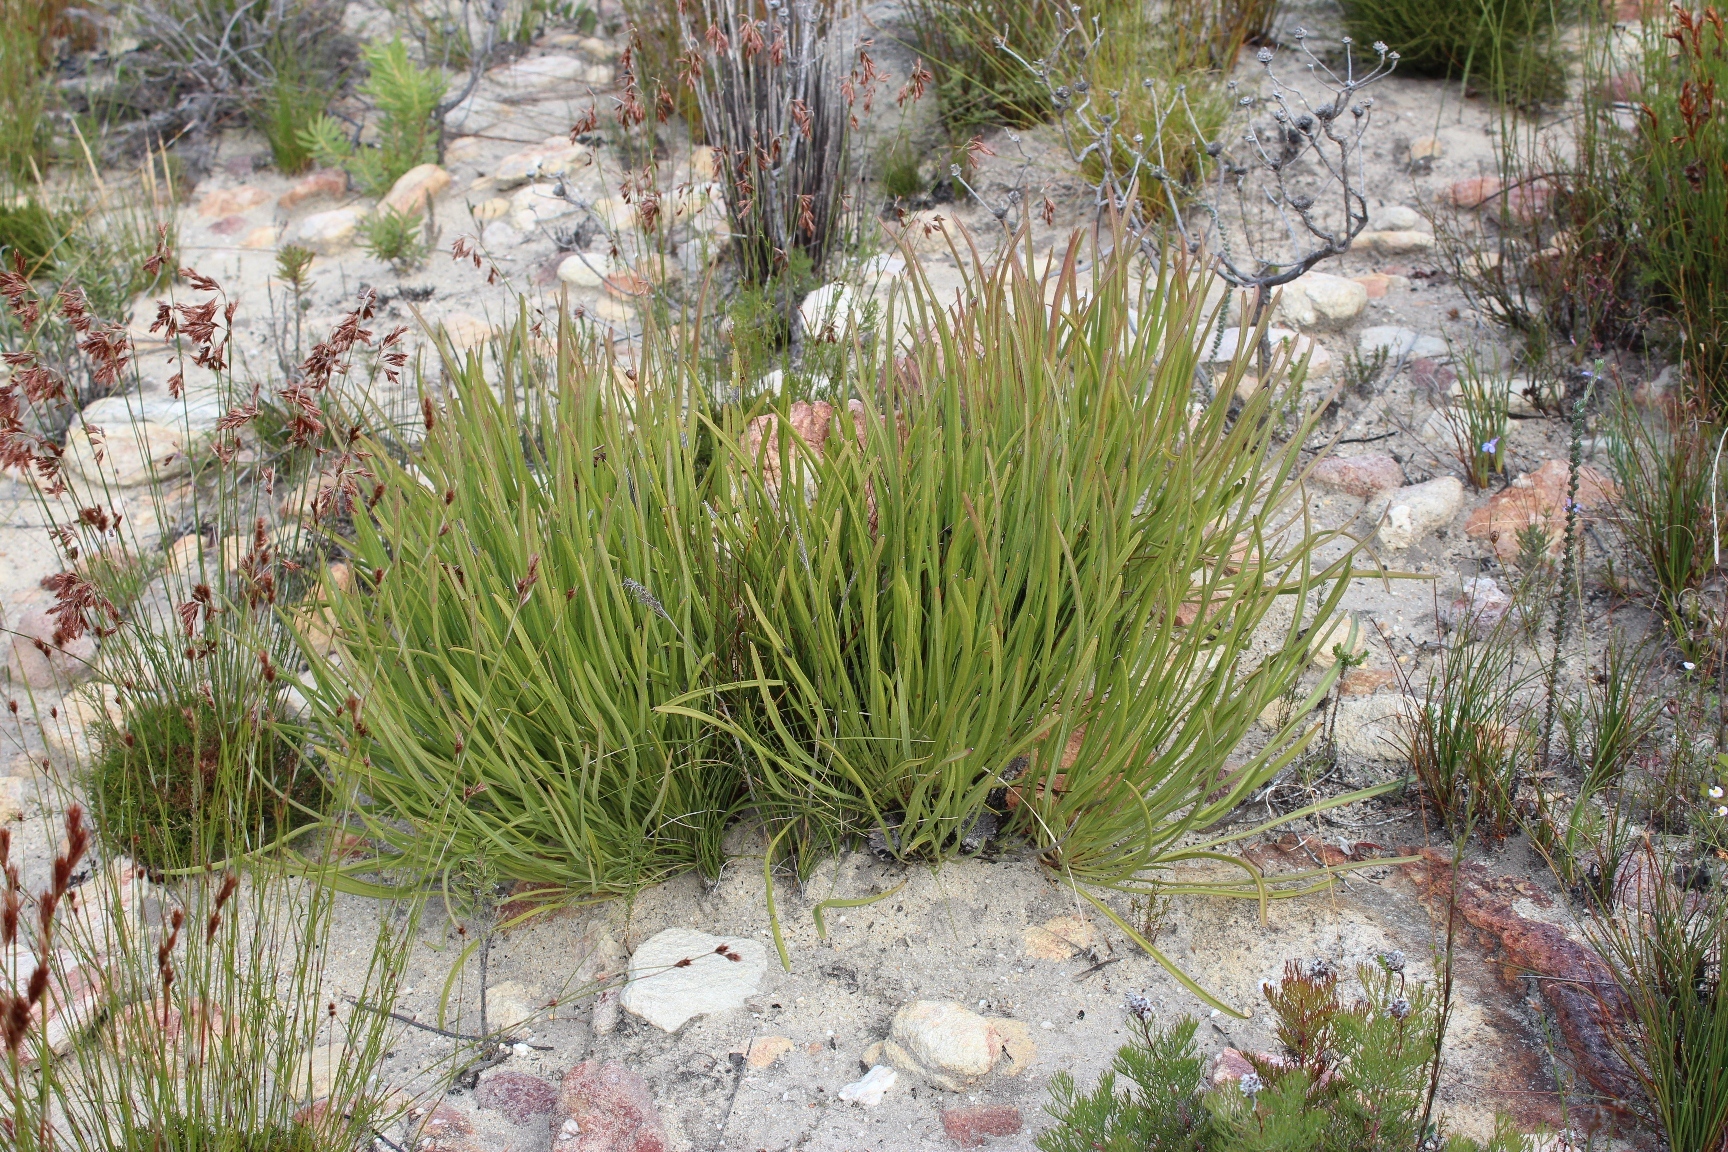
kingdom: Plantae
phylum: Tracheophyta
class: Magnoliopsida
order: Proteales
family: Proteaceae
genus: Protea
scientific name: Protea scabra
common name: Sandpaper-leaf sugarbush
